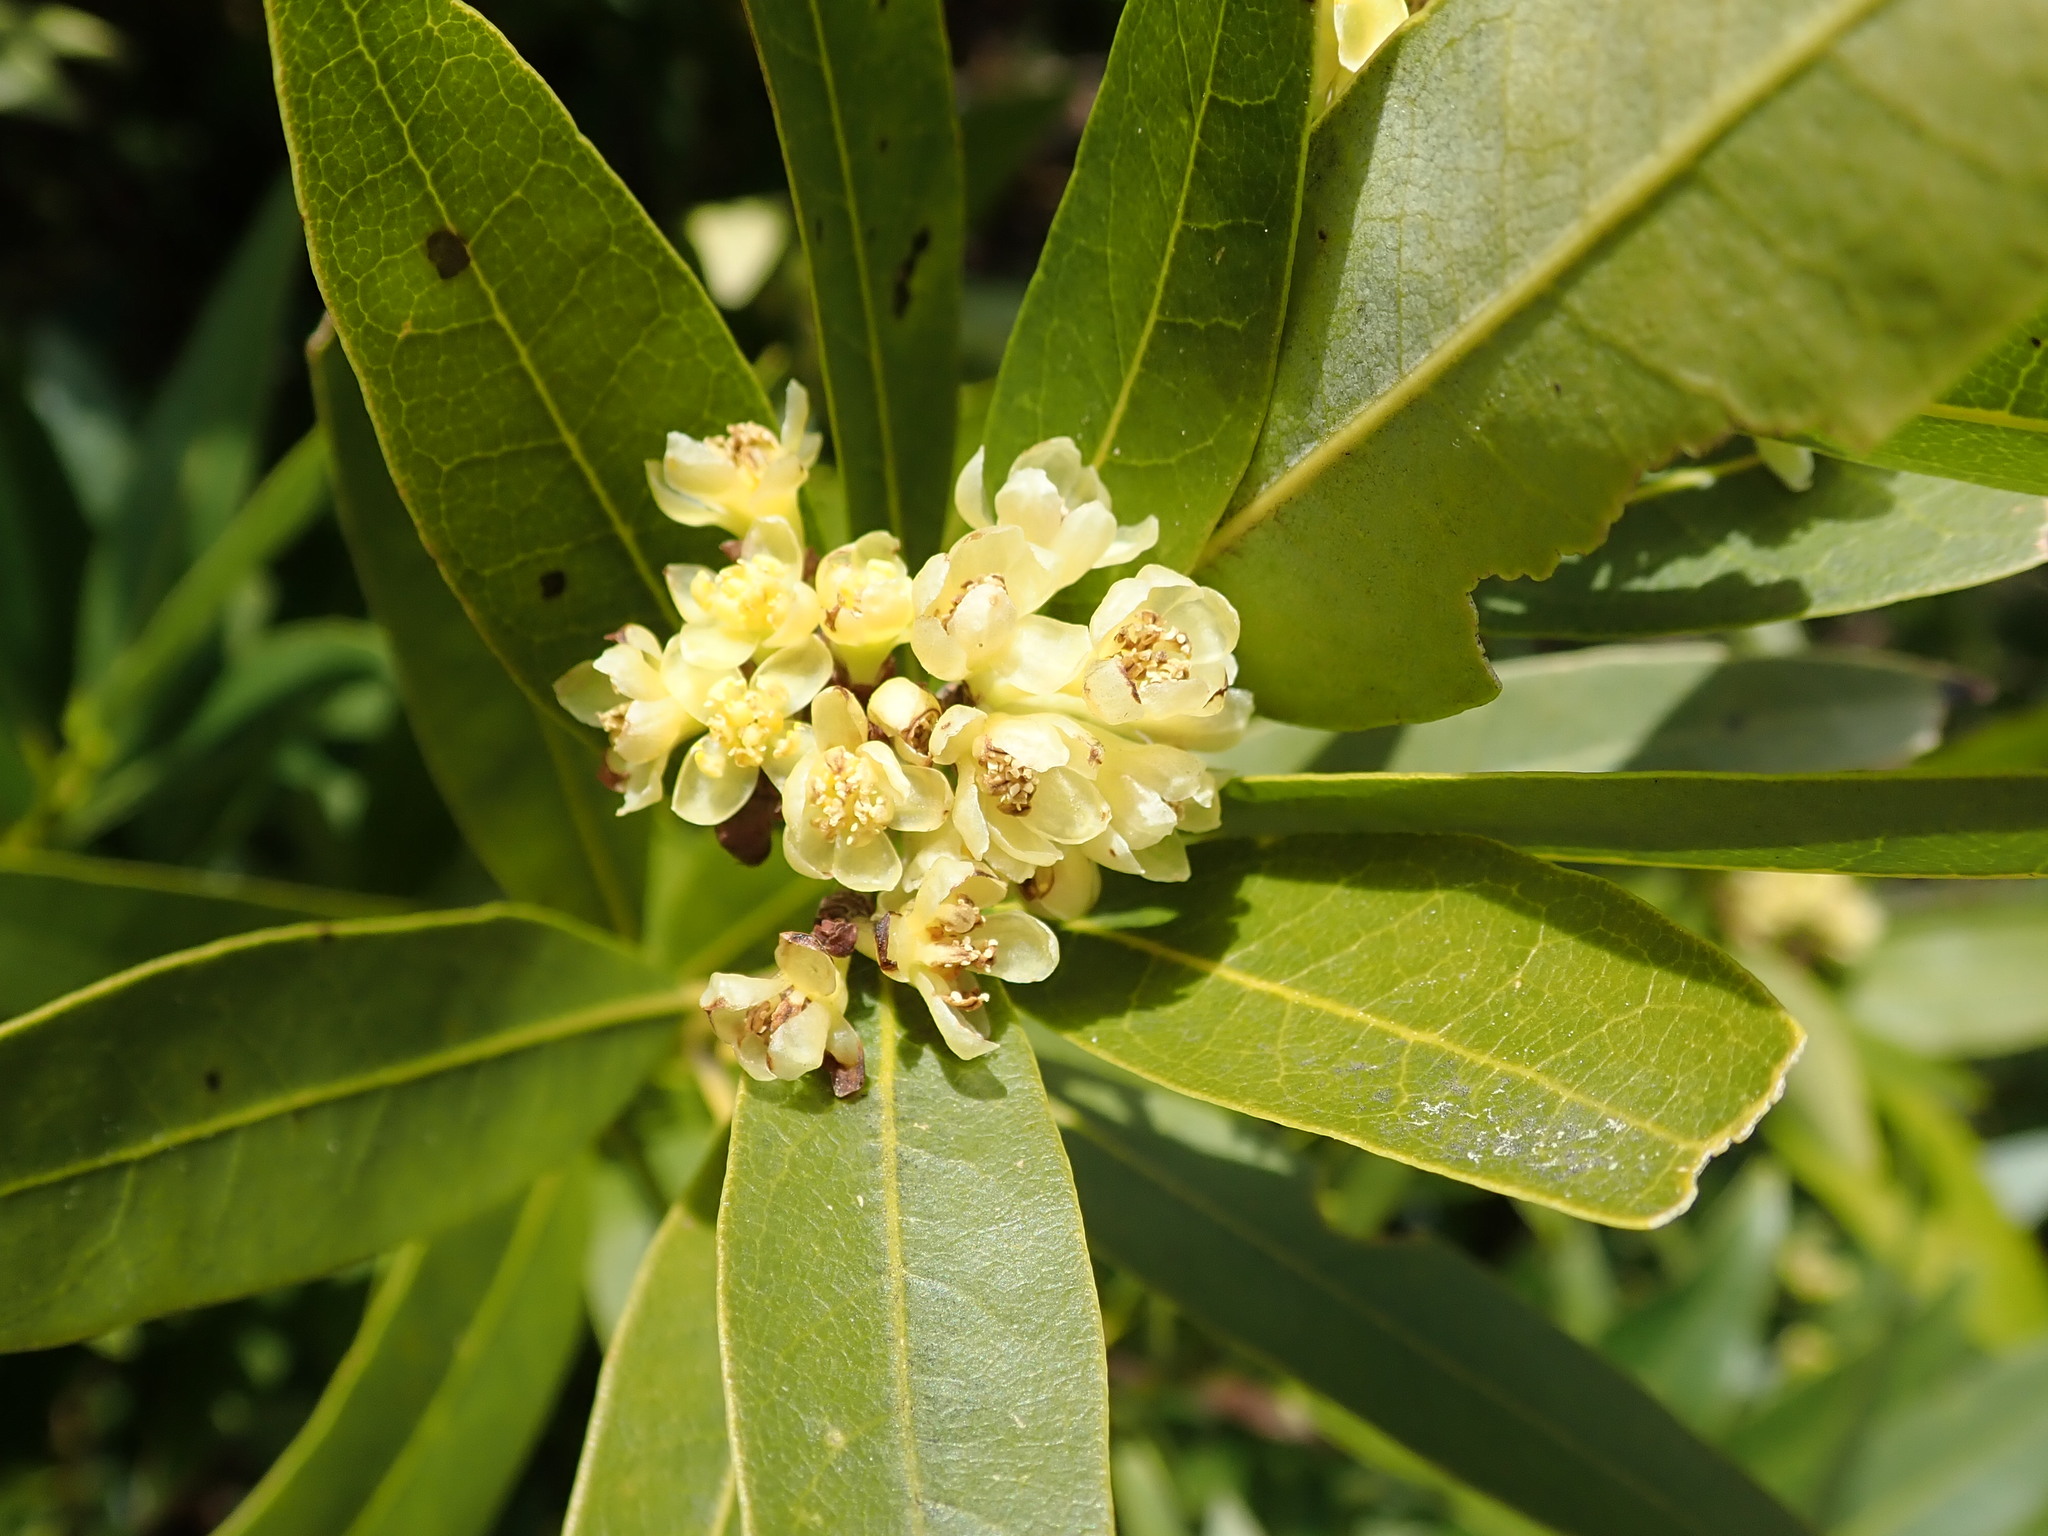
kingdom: Plantae
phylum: Tracheophyta
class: Magnoliopsida
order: Laurales
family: Lauraceae
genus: Umbellularia
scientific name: Umbellularia californica
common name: California bay
